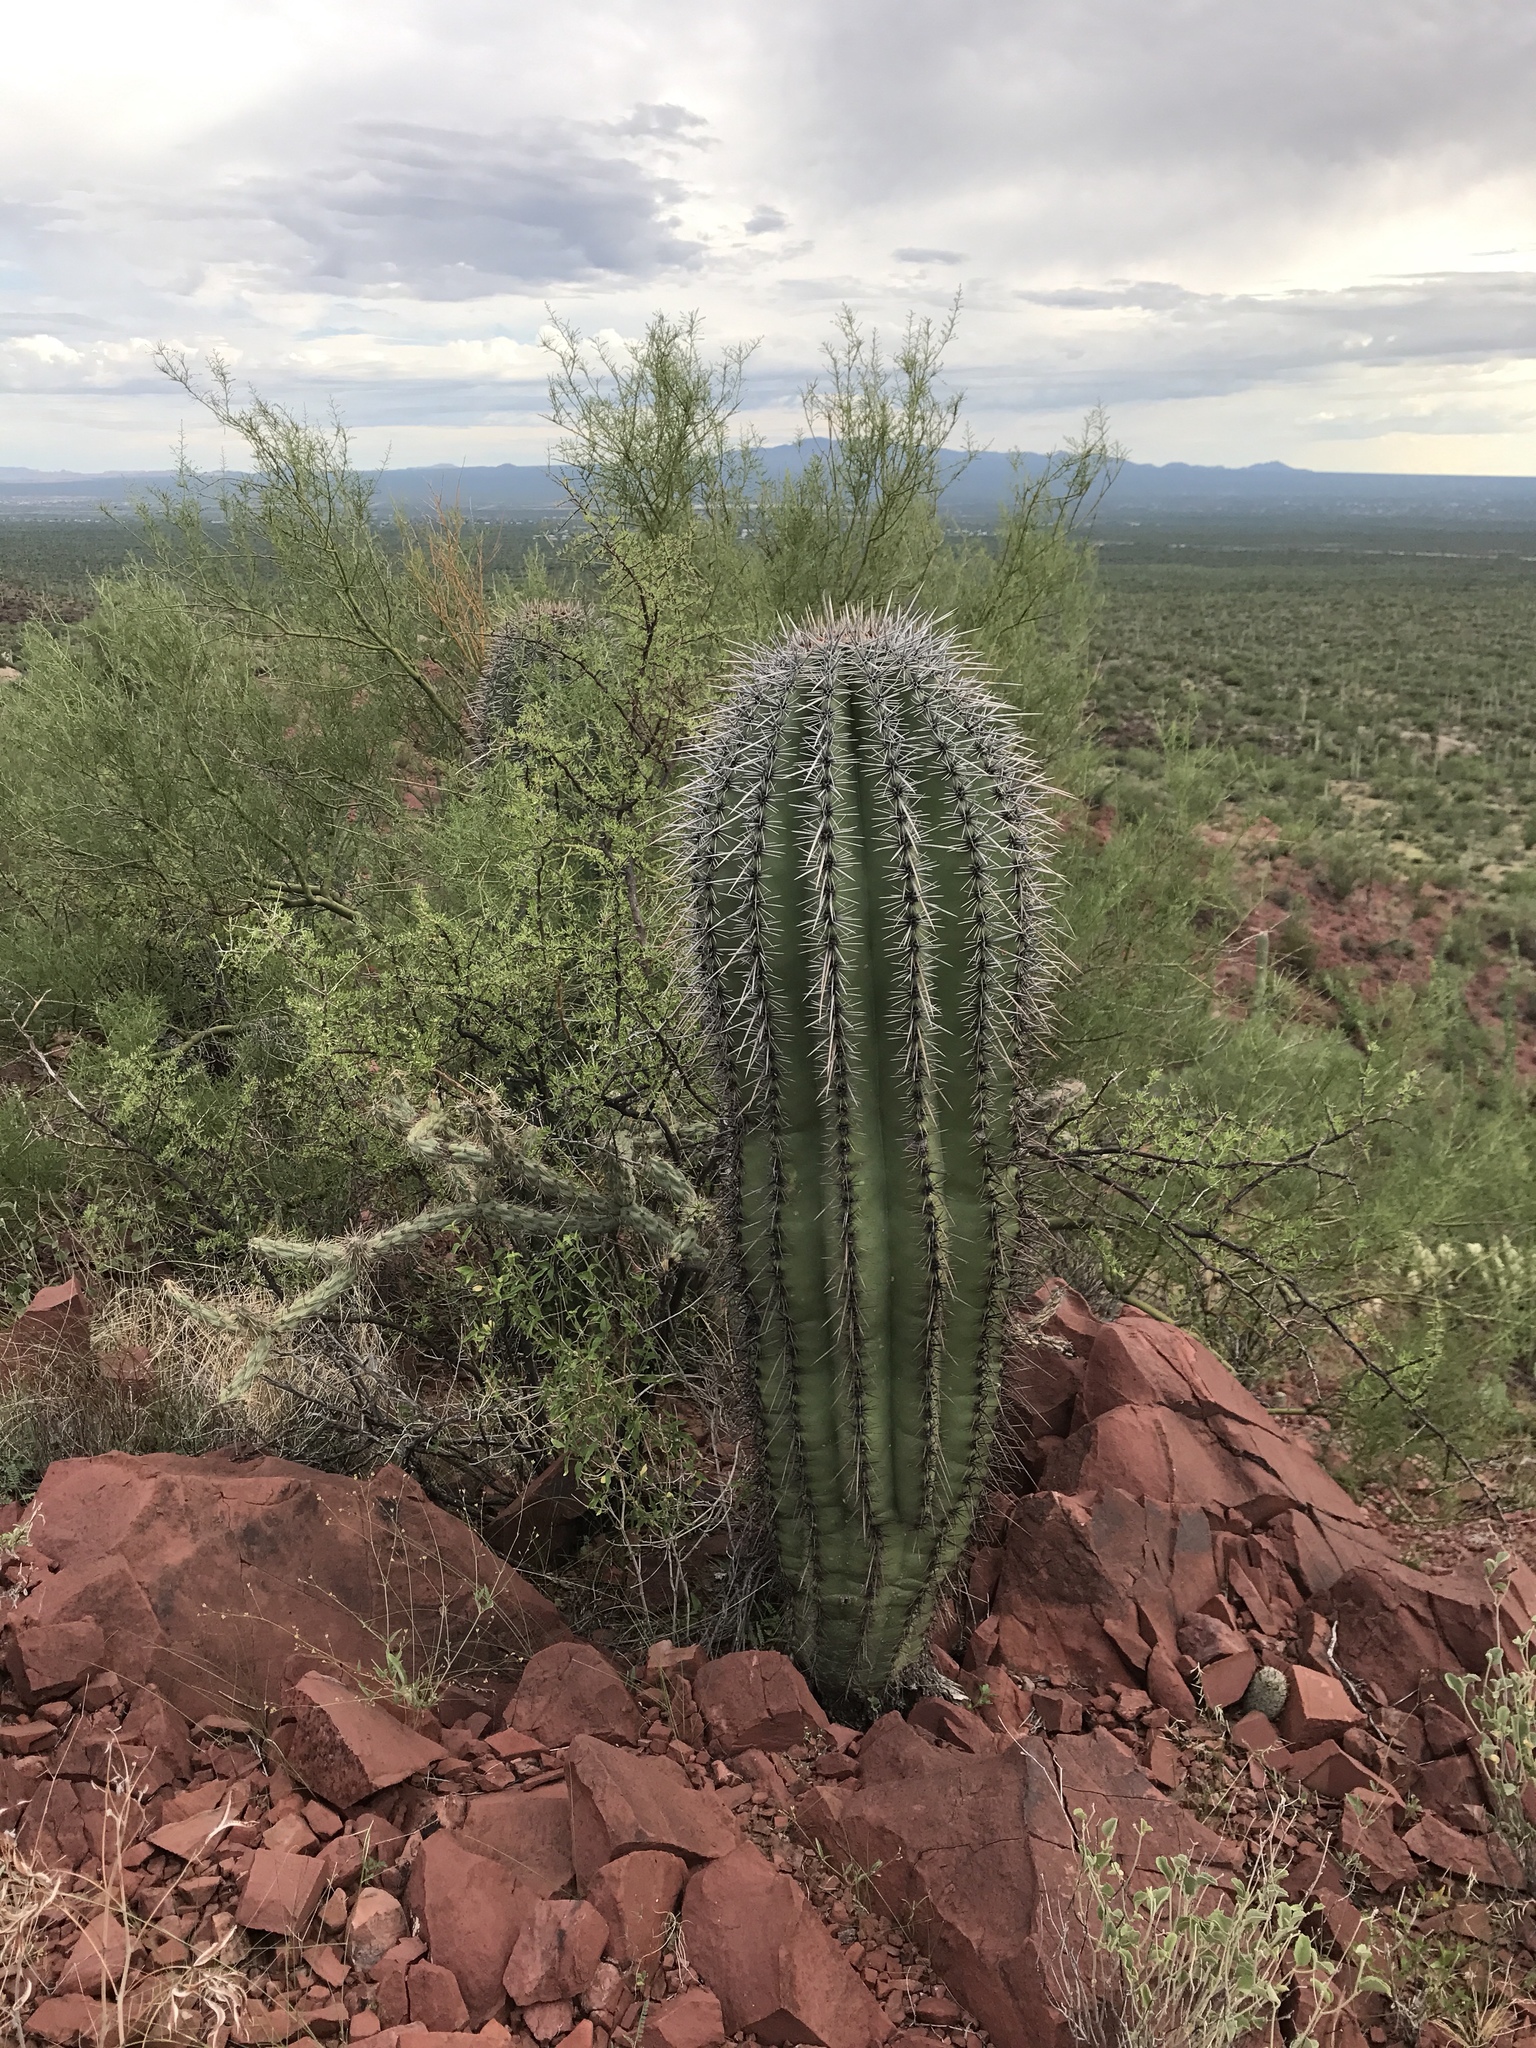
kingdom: Plantae
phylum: Tracheophyta
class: Magnoliopsida
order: Caryophyllales
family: Cactaceae
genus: Carnegiea
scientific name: Carnegiea gigantea
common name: Saguaro
